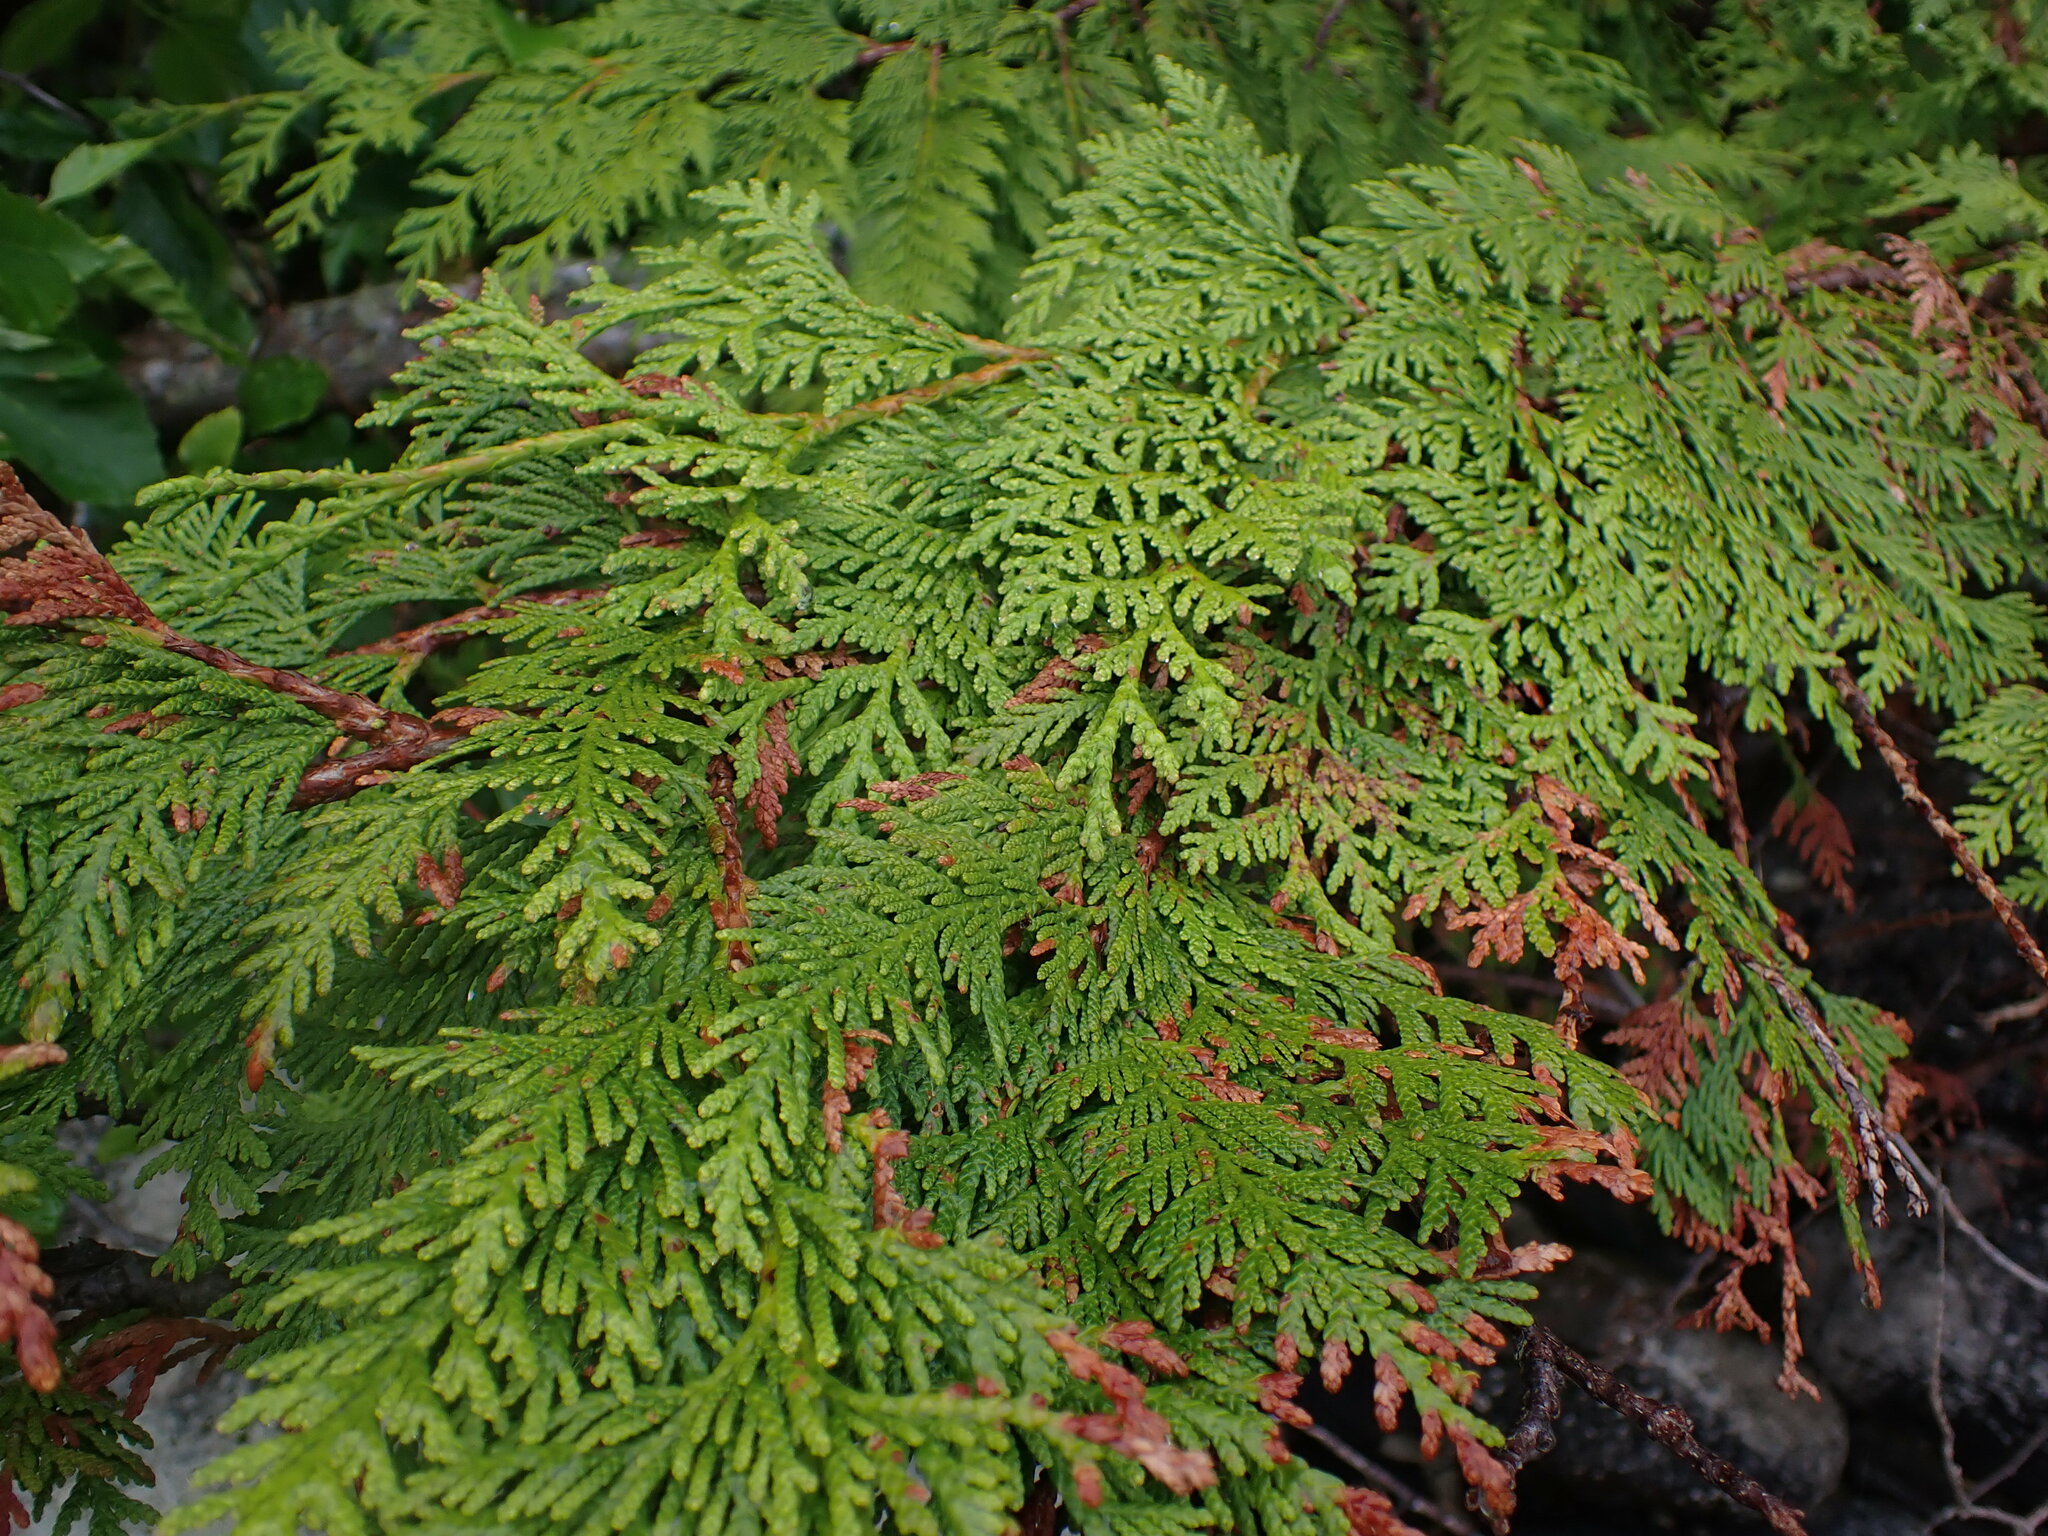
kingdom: Plantae
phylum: Tracheophyta
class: Pinopsida
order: Pinales
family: Cupressaceae
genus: Thuja
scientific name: Thuja plicata
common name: Western red-cedar
